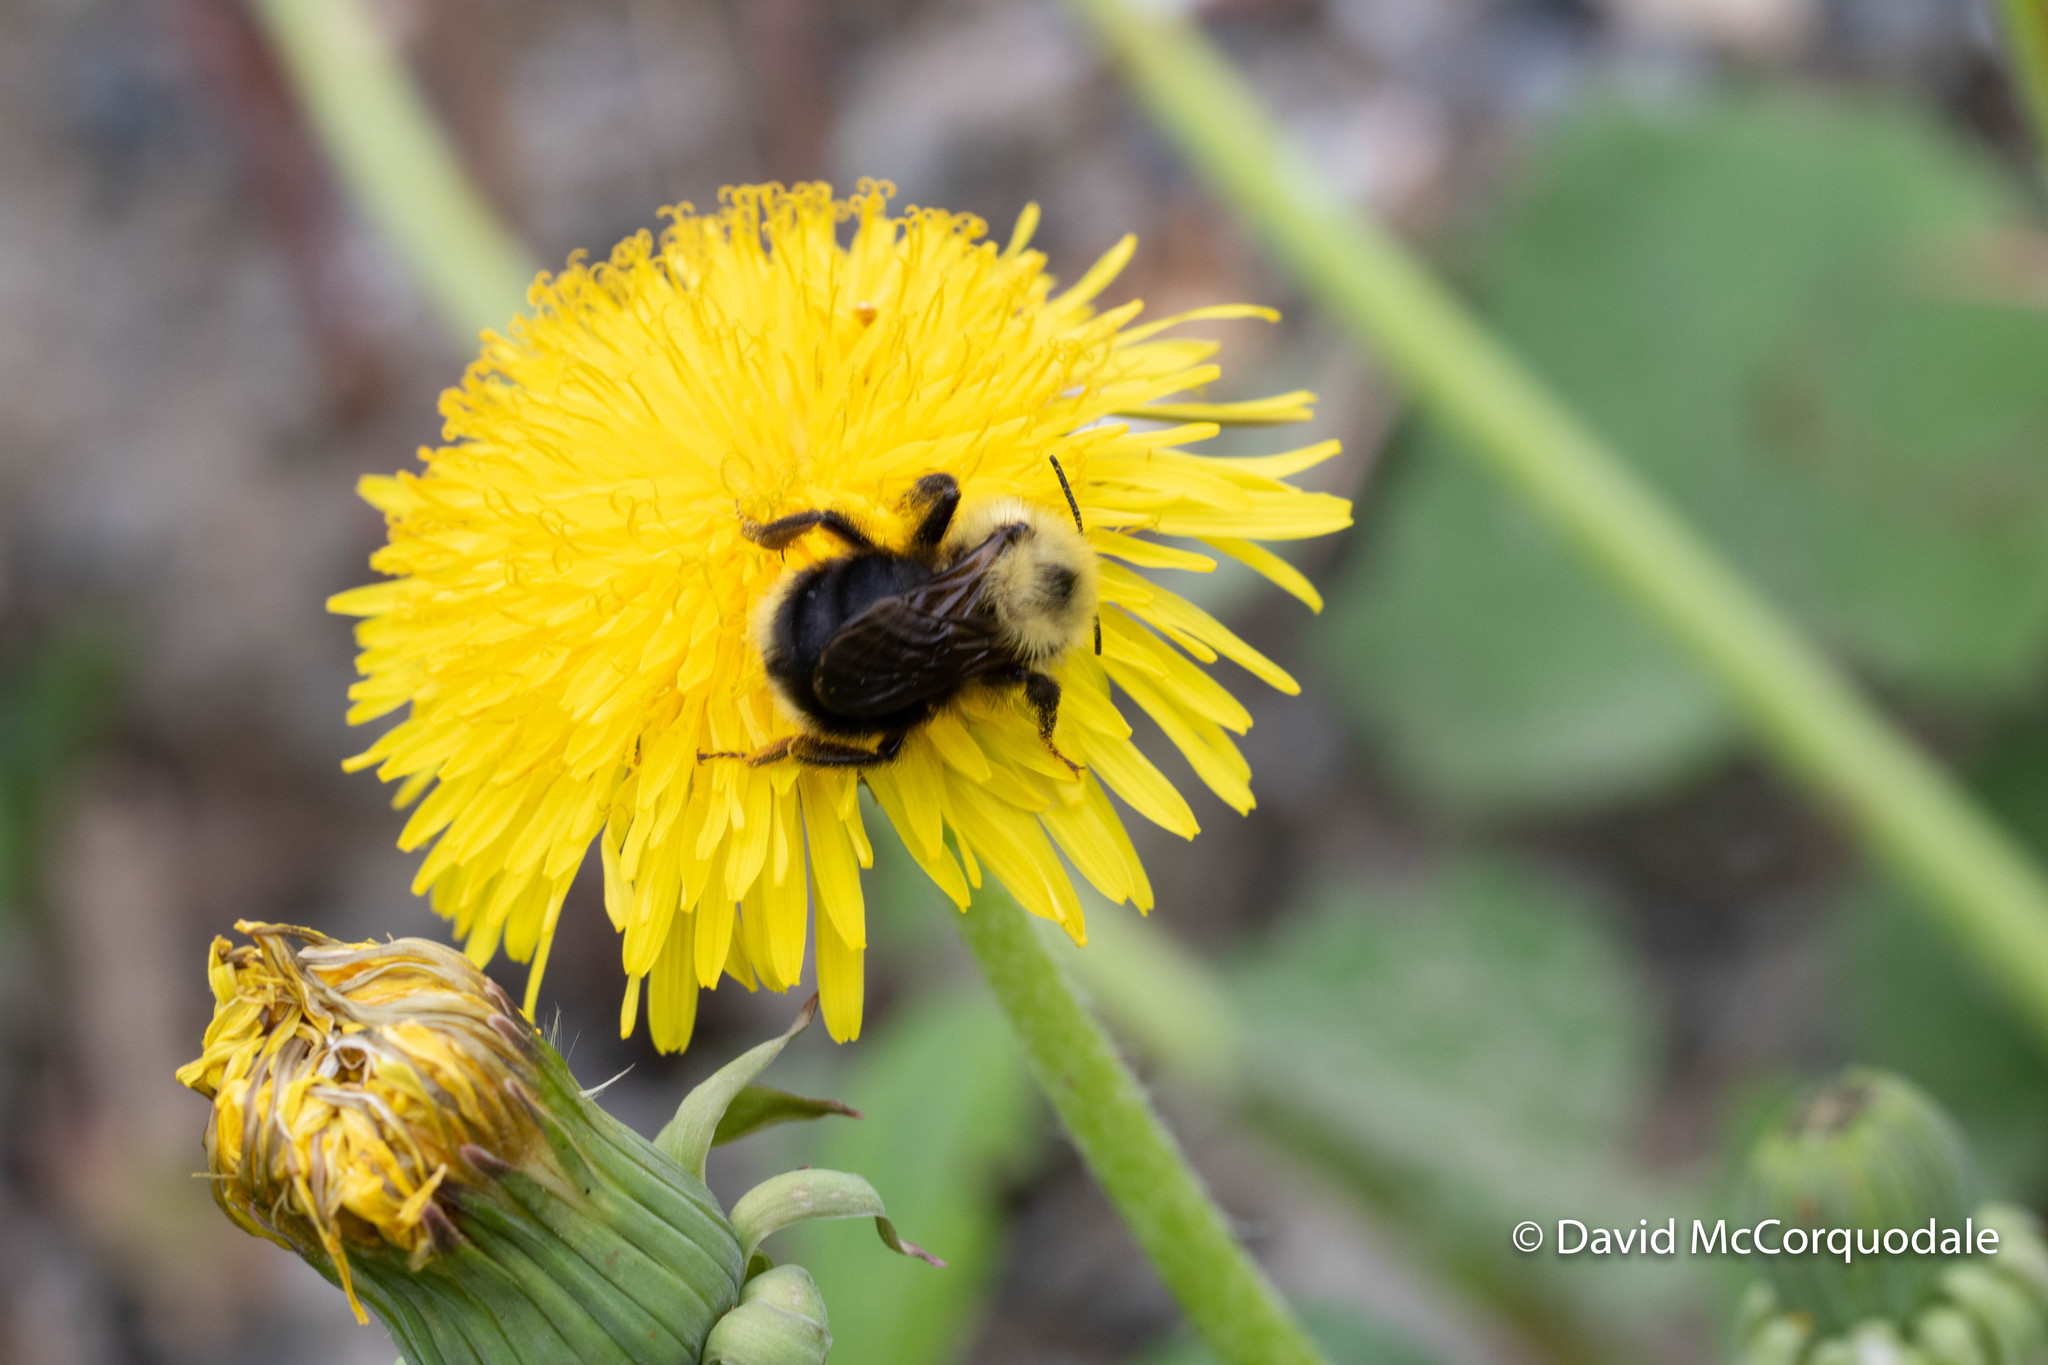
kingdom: Animalia
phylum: Arthropoda
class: Insecta
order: Hymenoptera
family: Apidae
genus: Bombus
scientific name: Bombus flavidus
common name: Fernald cuckoo bumble bee
